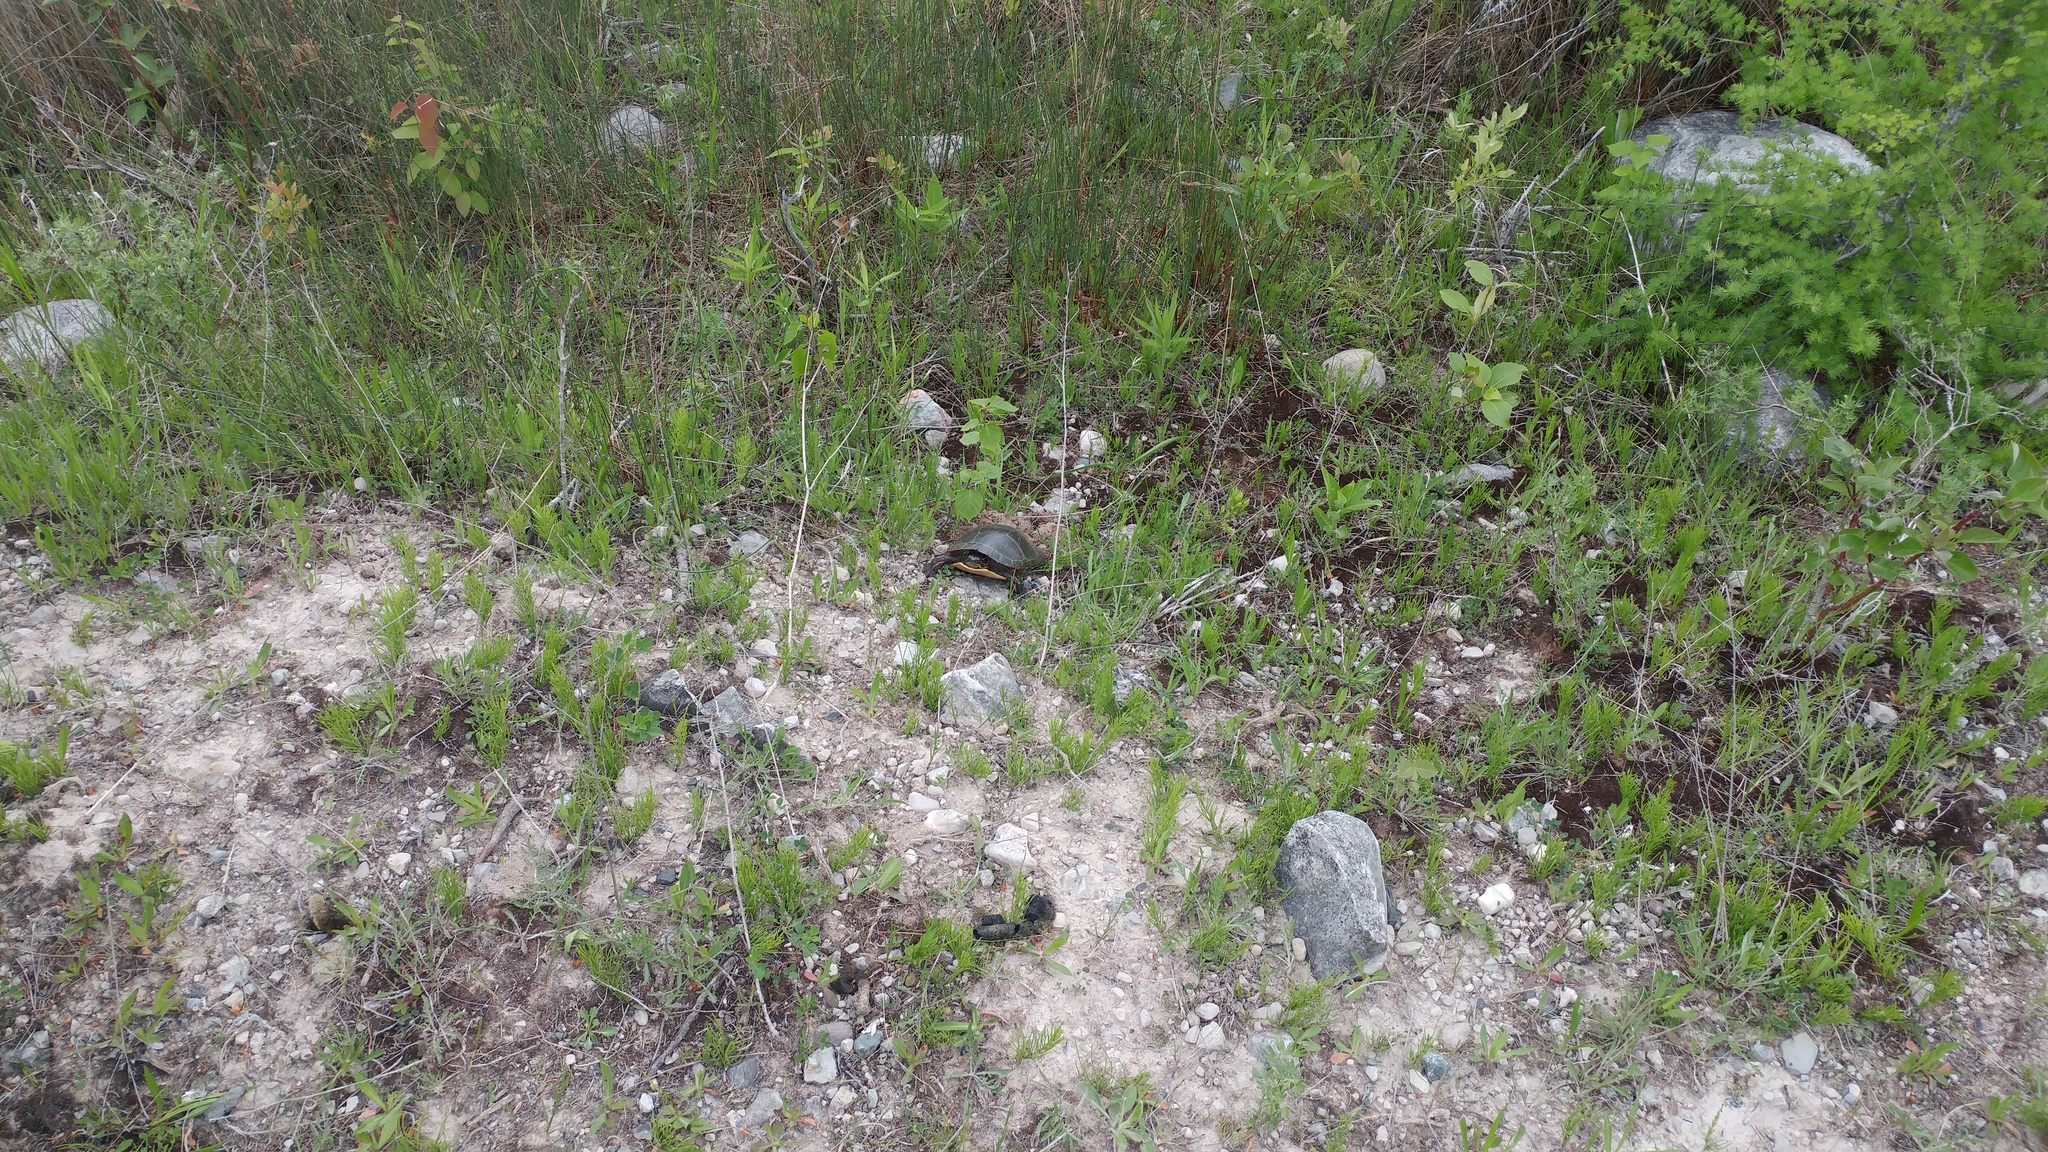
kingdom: Animalia
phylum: Chordata
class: Testudines
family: Emydidae
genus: Chrysemys
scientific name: Chrysemys picta
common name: Painted turtle
